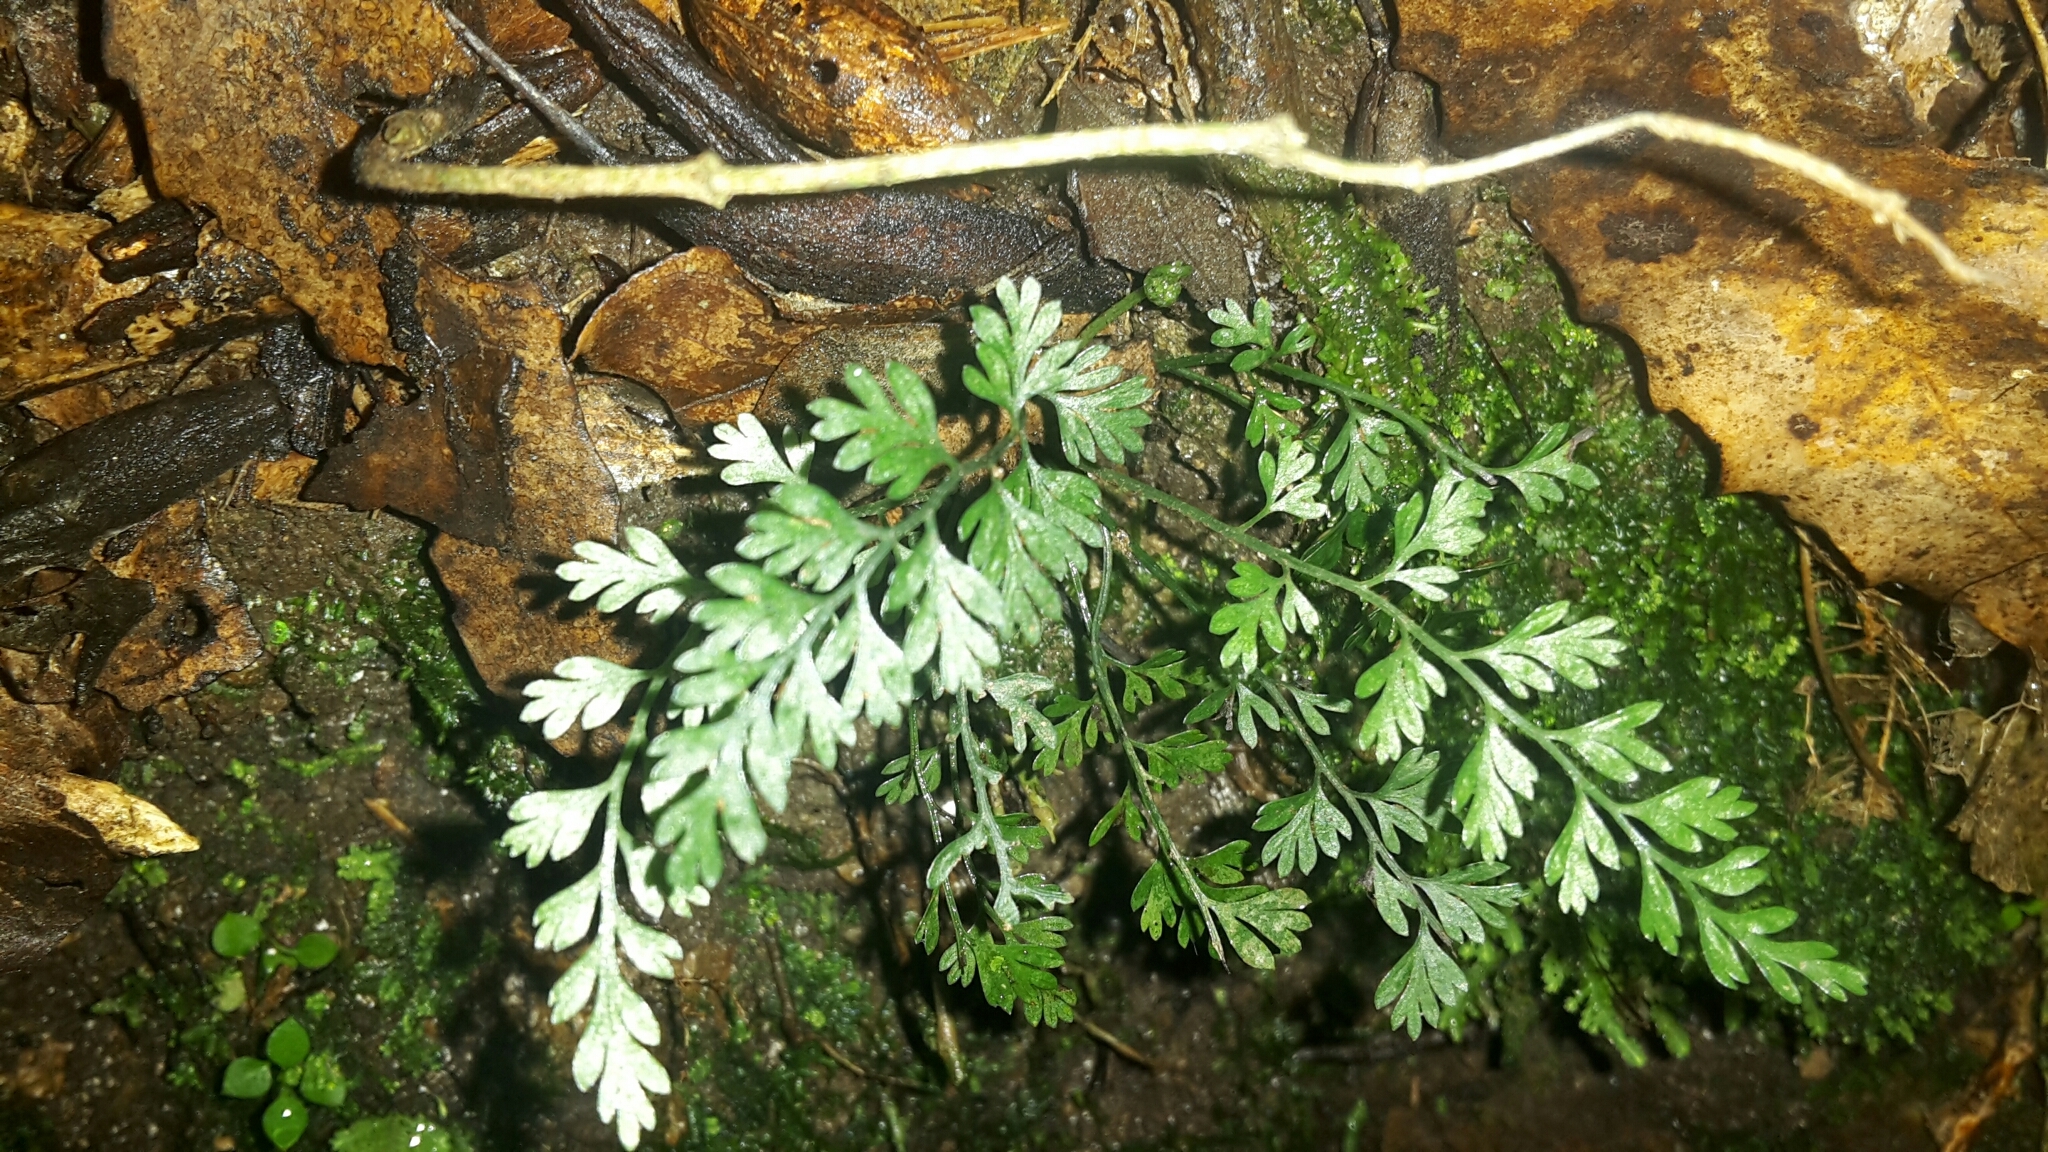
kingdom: Plantae
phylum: Tracheophyta
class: Polypodiopsida
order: Polypodiales
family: Aspleniaceae
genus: Asplenium
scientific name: Asplenium hookerianum
